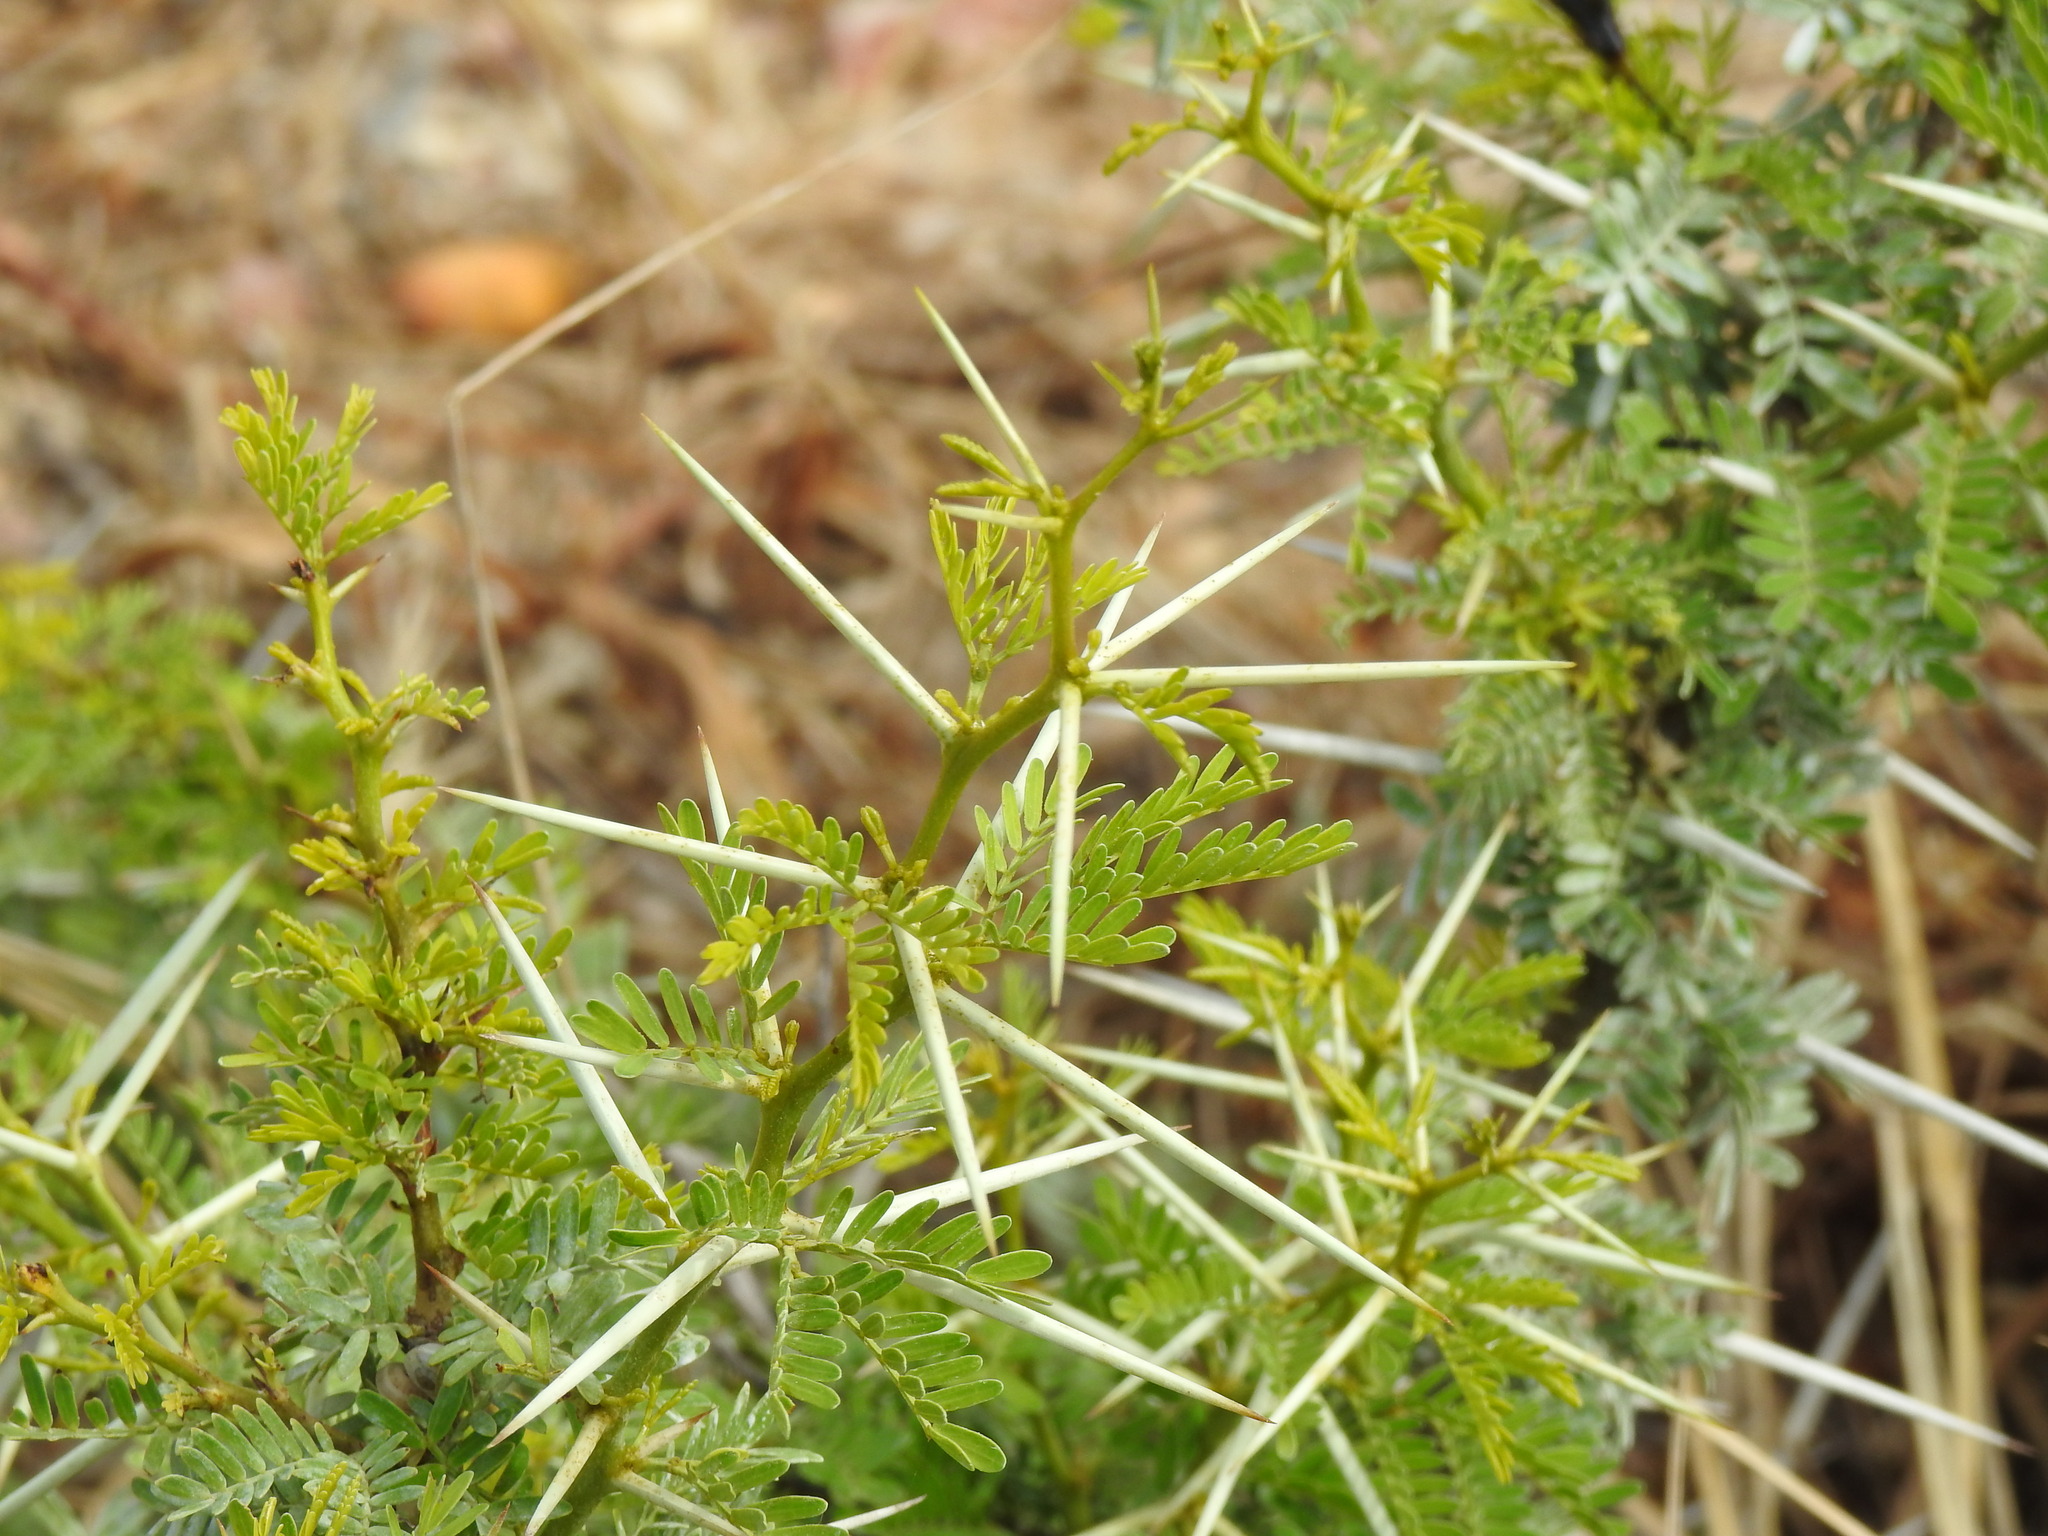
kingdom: Plantae
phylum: Tracheophyta
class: Magnoliopsida
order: Fabales
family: Fabaceae
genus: Vachellia
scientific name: Vachellia karroo
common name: Sweet thorn
